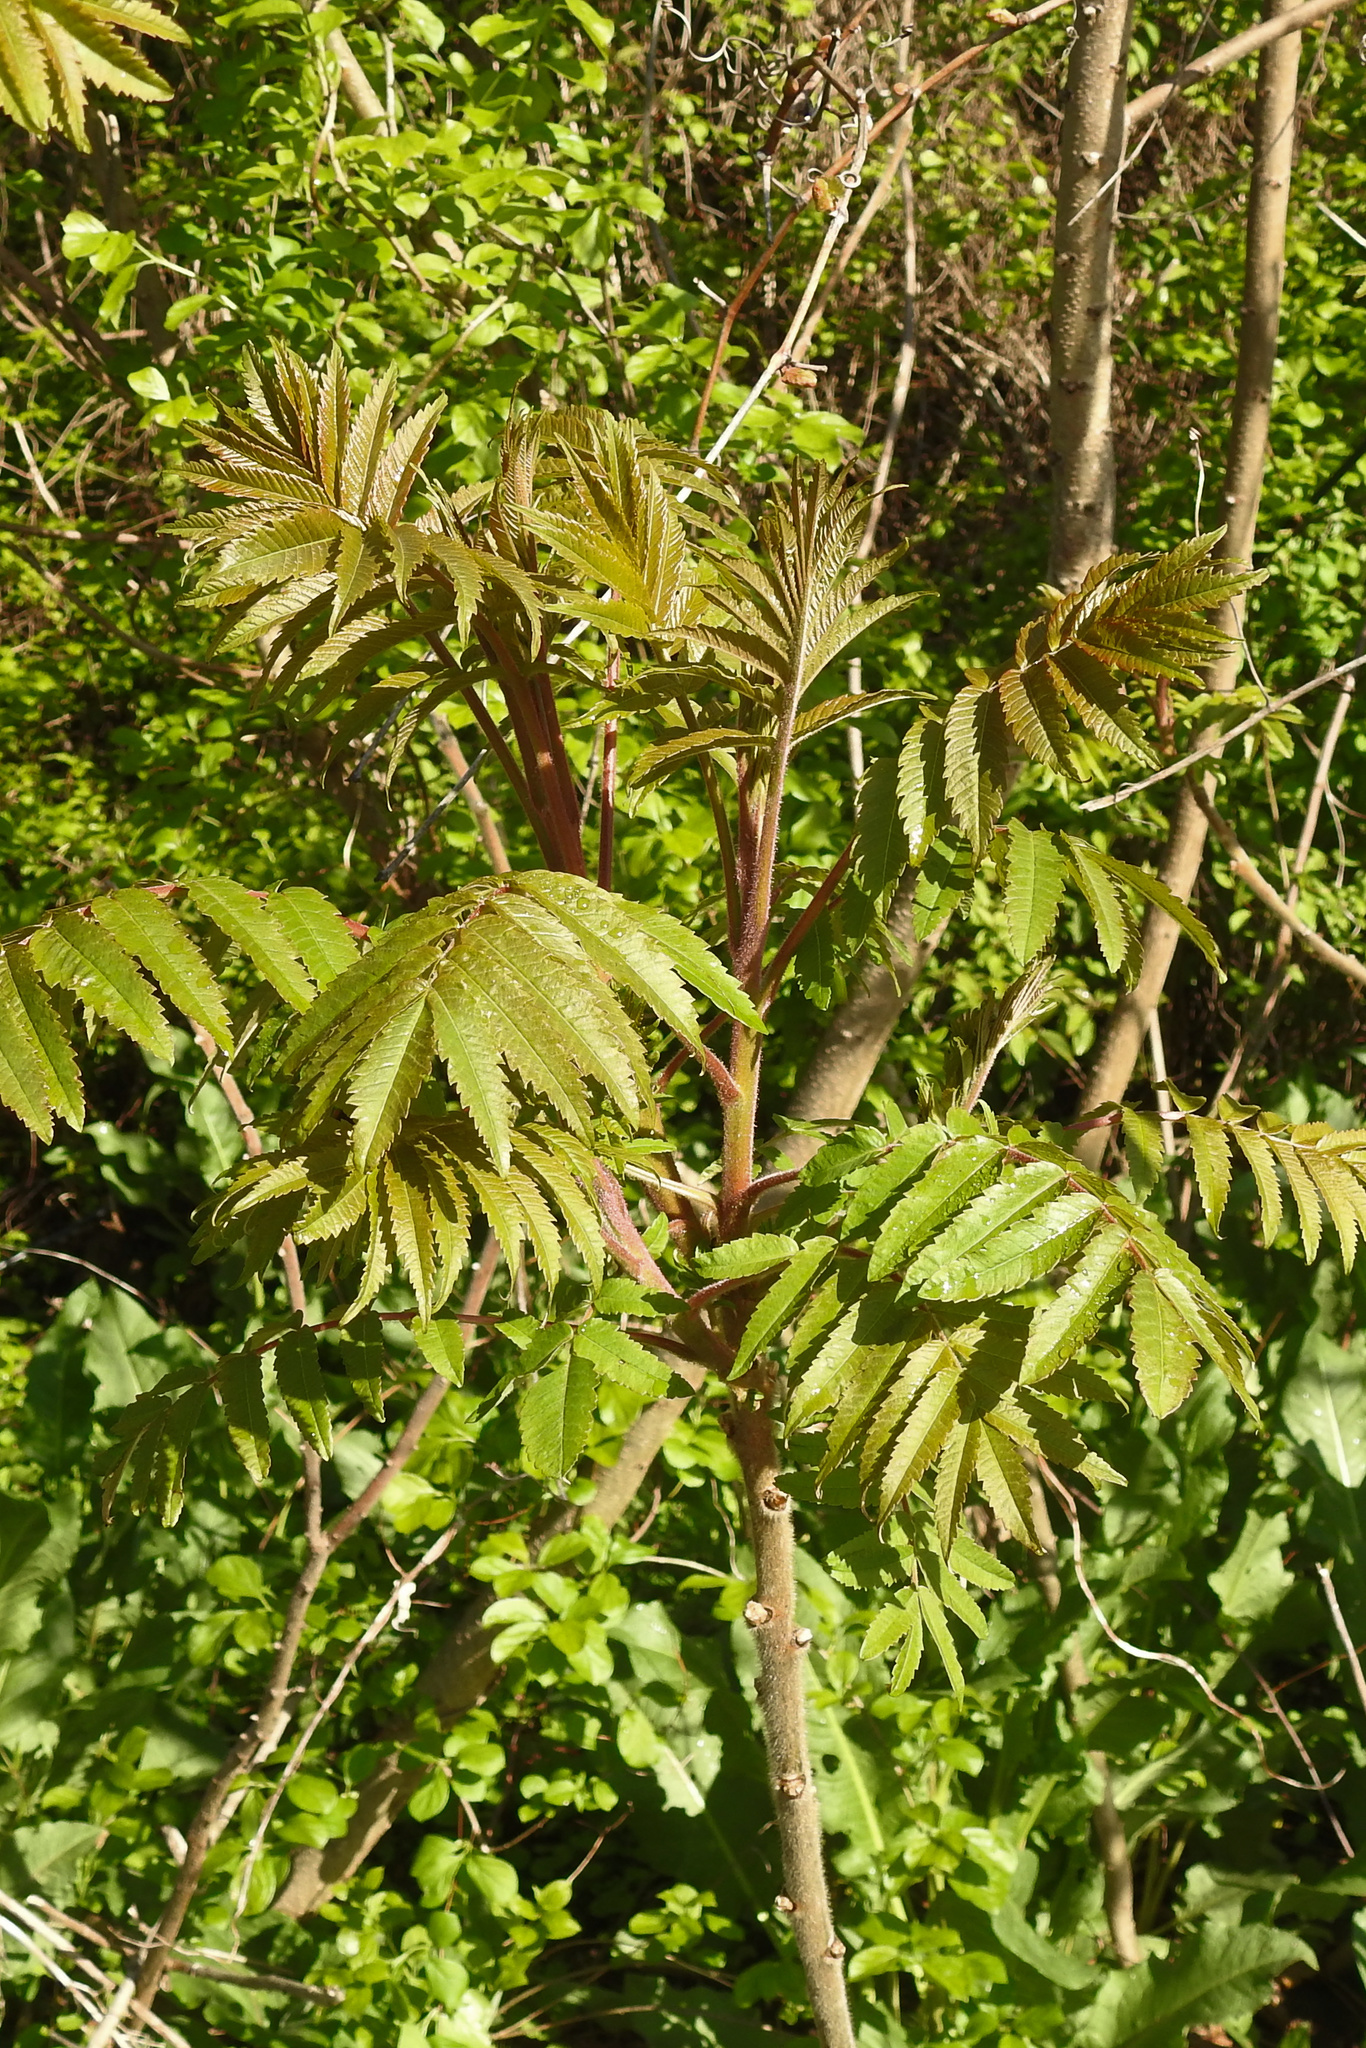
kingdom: Plantae
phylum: Tracheophyta
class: Magnoliopsida
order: Sapindales
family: Anacardiaceae
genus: Rhus
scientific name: Rhus typhina
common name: Staghorn sumac
